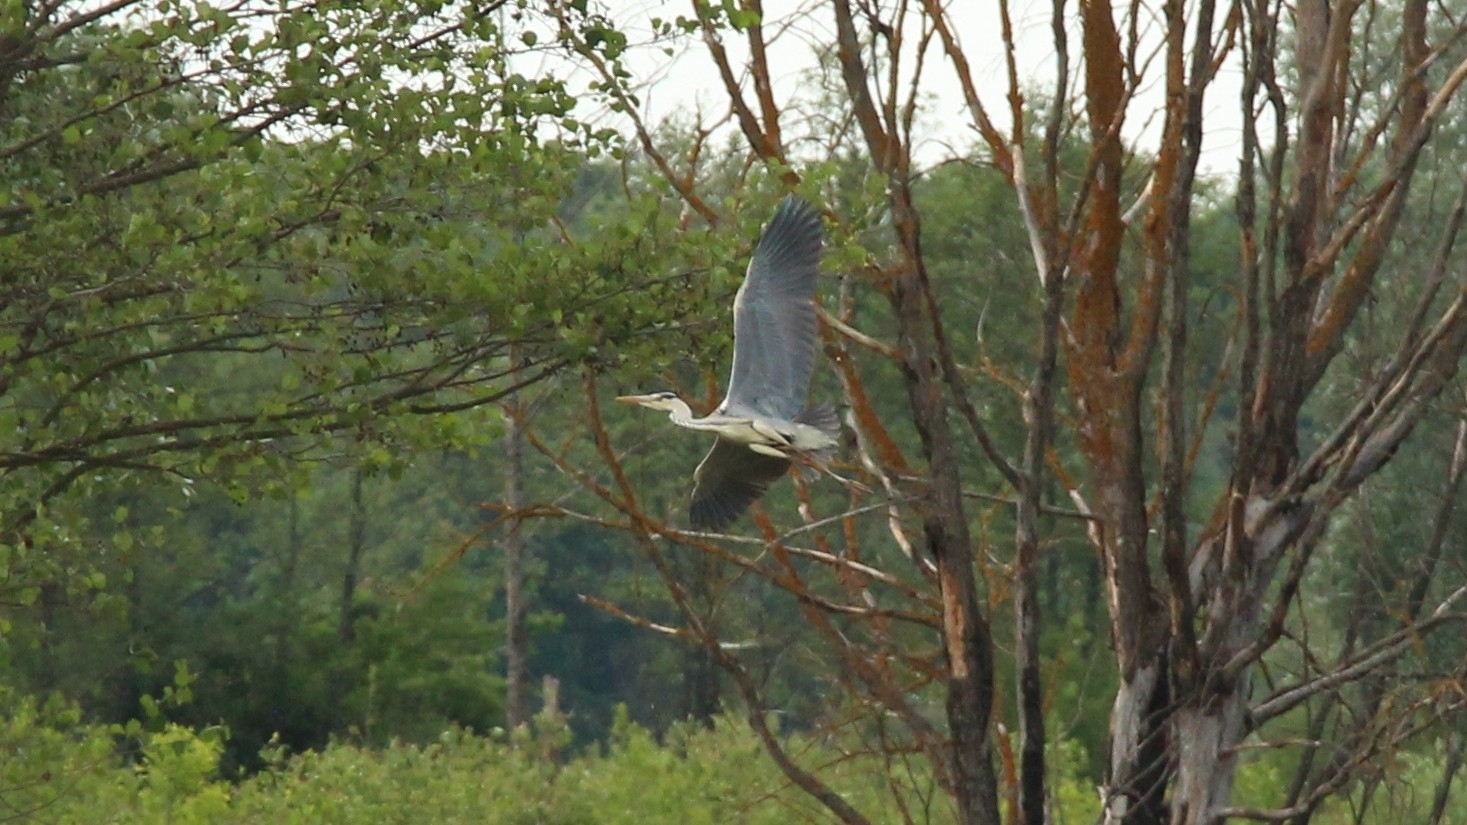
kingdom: Animalia
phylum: Chordata
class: Aves
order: Pelecaniformes
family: Ardeidae
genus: Ardea
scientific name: Ardea cinerea
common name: Grey heron
